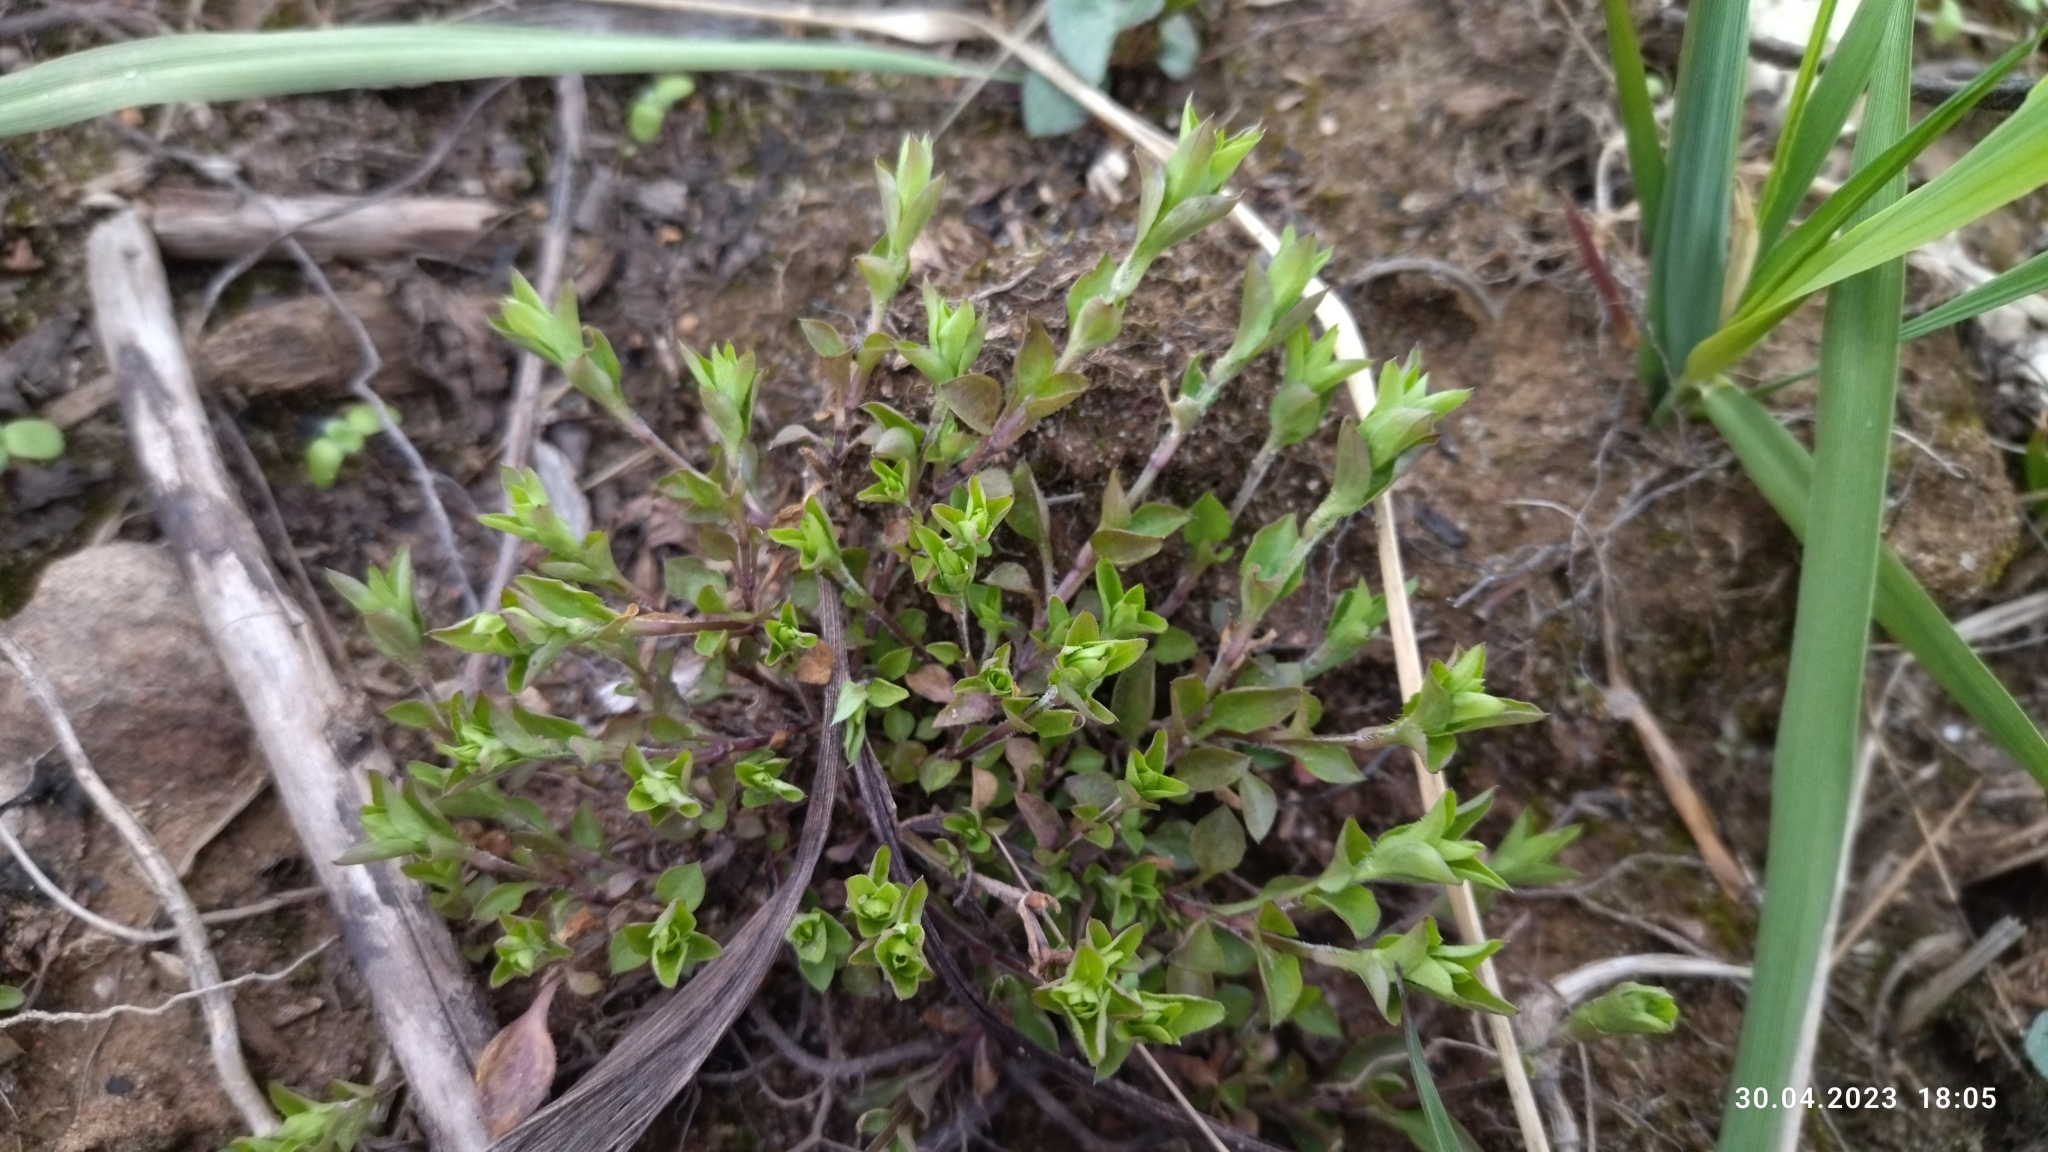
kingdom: Plantae
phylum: Tracheophyta
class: Magnoliopsida
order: Caryophyllales
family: Caryophyllaceae
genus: Moehringia
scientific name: Moehringia trinervia
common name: Three-nerved sandwort
